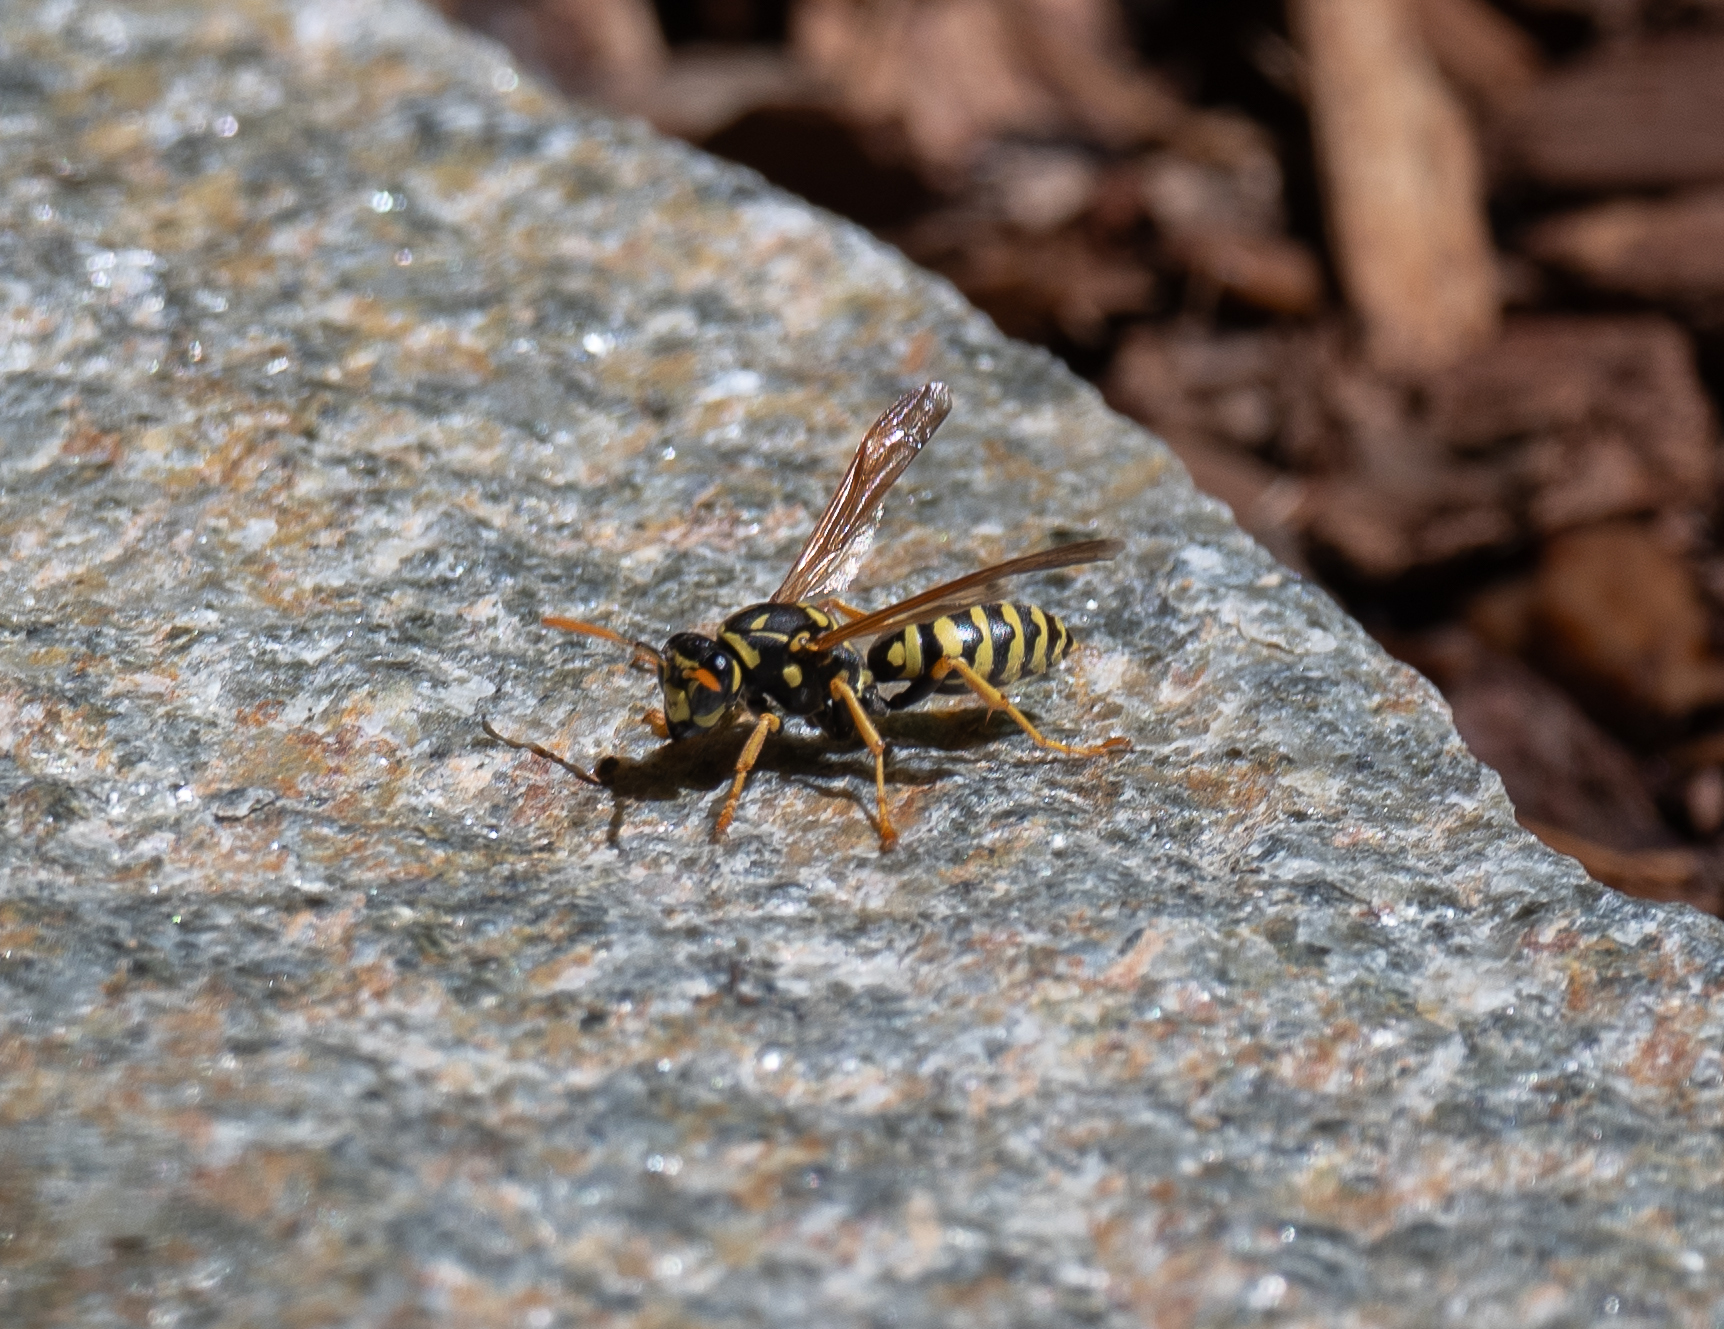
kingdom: Animalia
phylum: Arthropoda
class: Insecta
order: Hymenoptera
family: Eumenidae
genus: Polistes
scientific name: Polistes dominula
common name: Paper wasp
